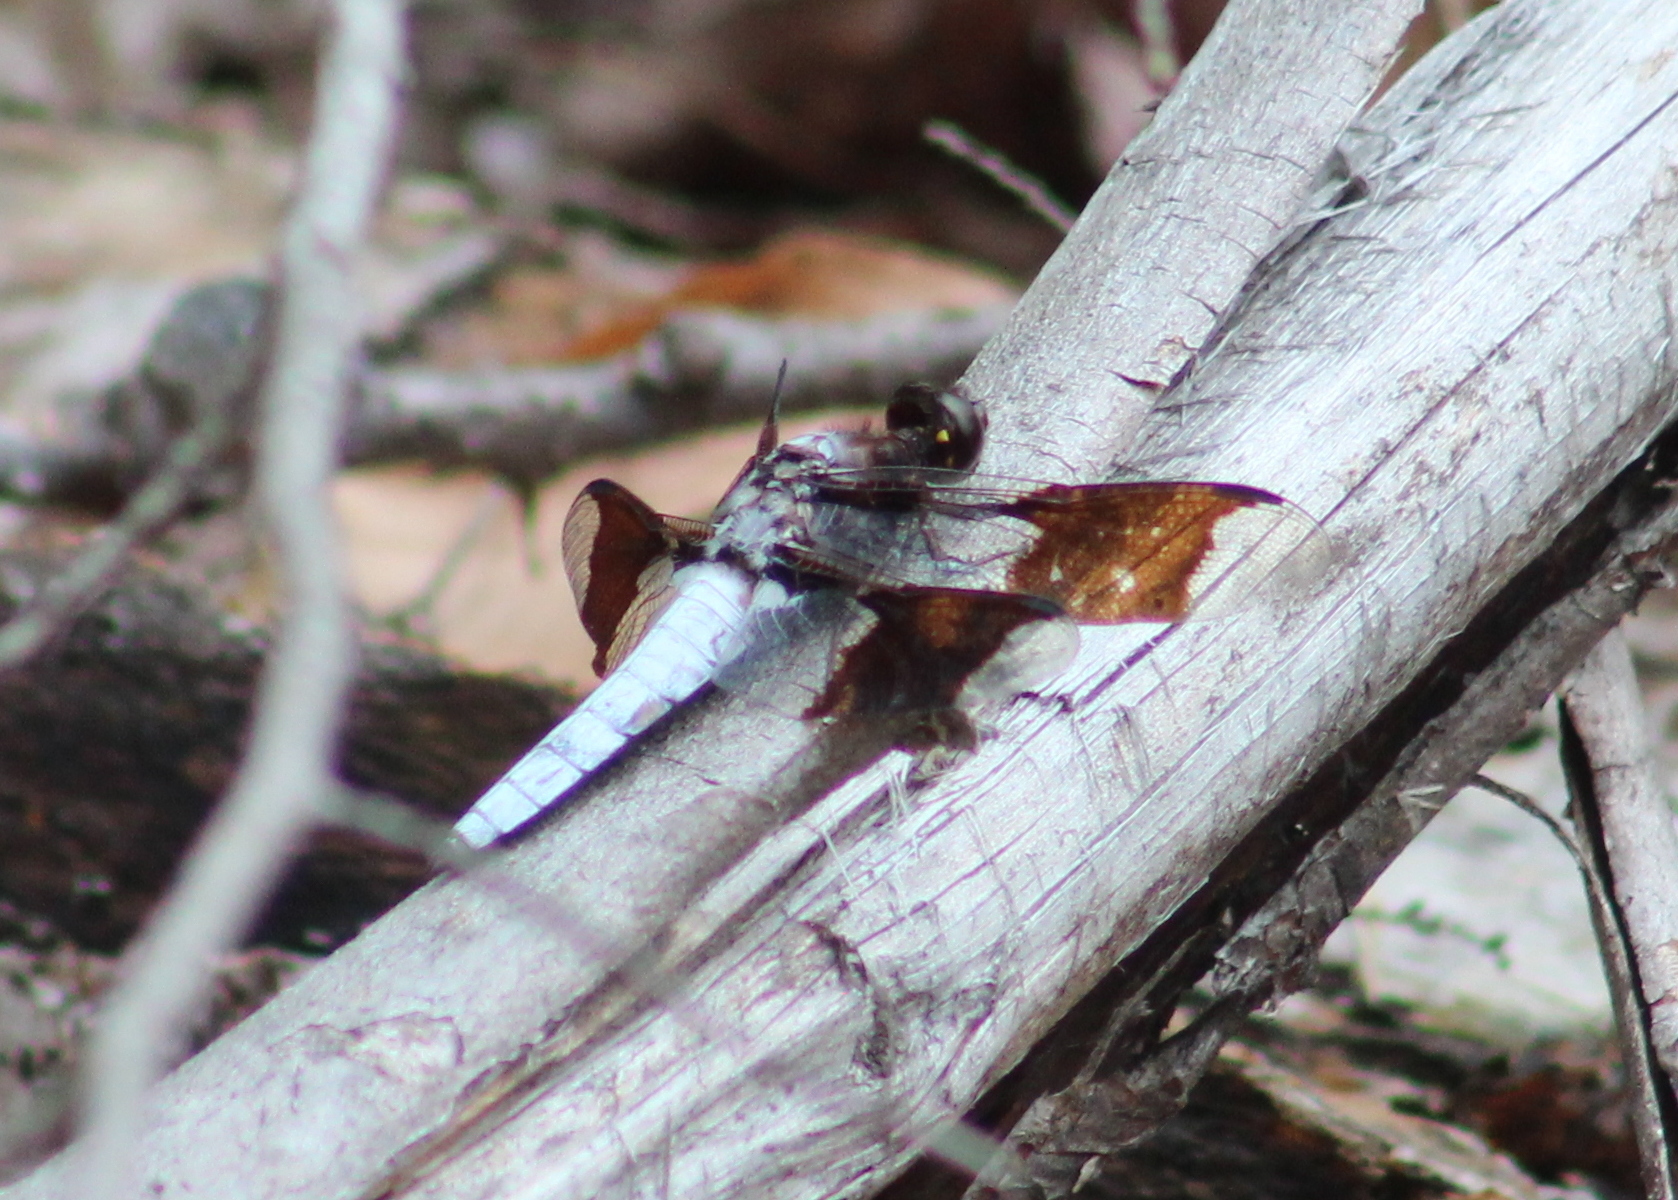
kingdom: Animalia
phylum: Arthropoda
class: Insecta
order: Odonata
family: Libellulidae
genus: Plathemis
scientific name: Plathemis lydia
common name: Common whitetail
